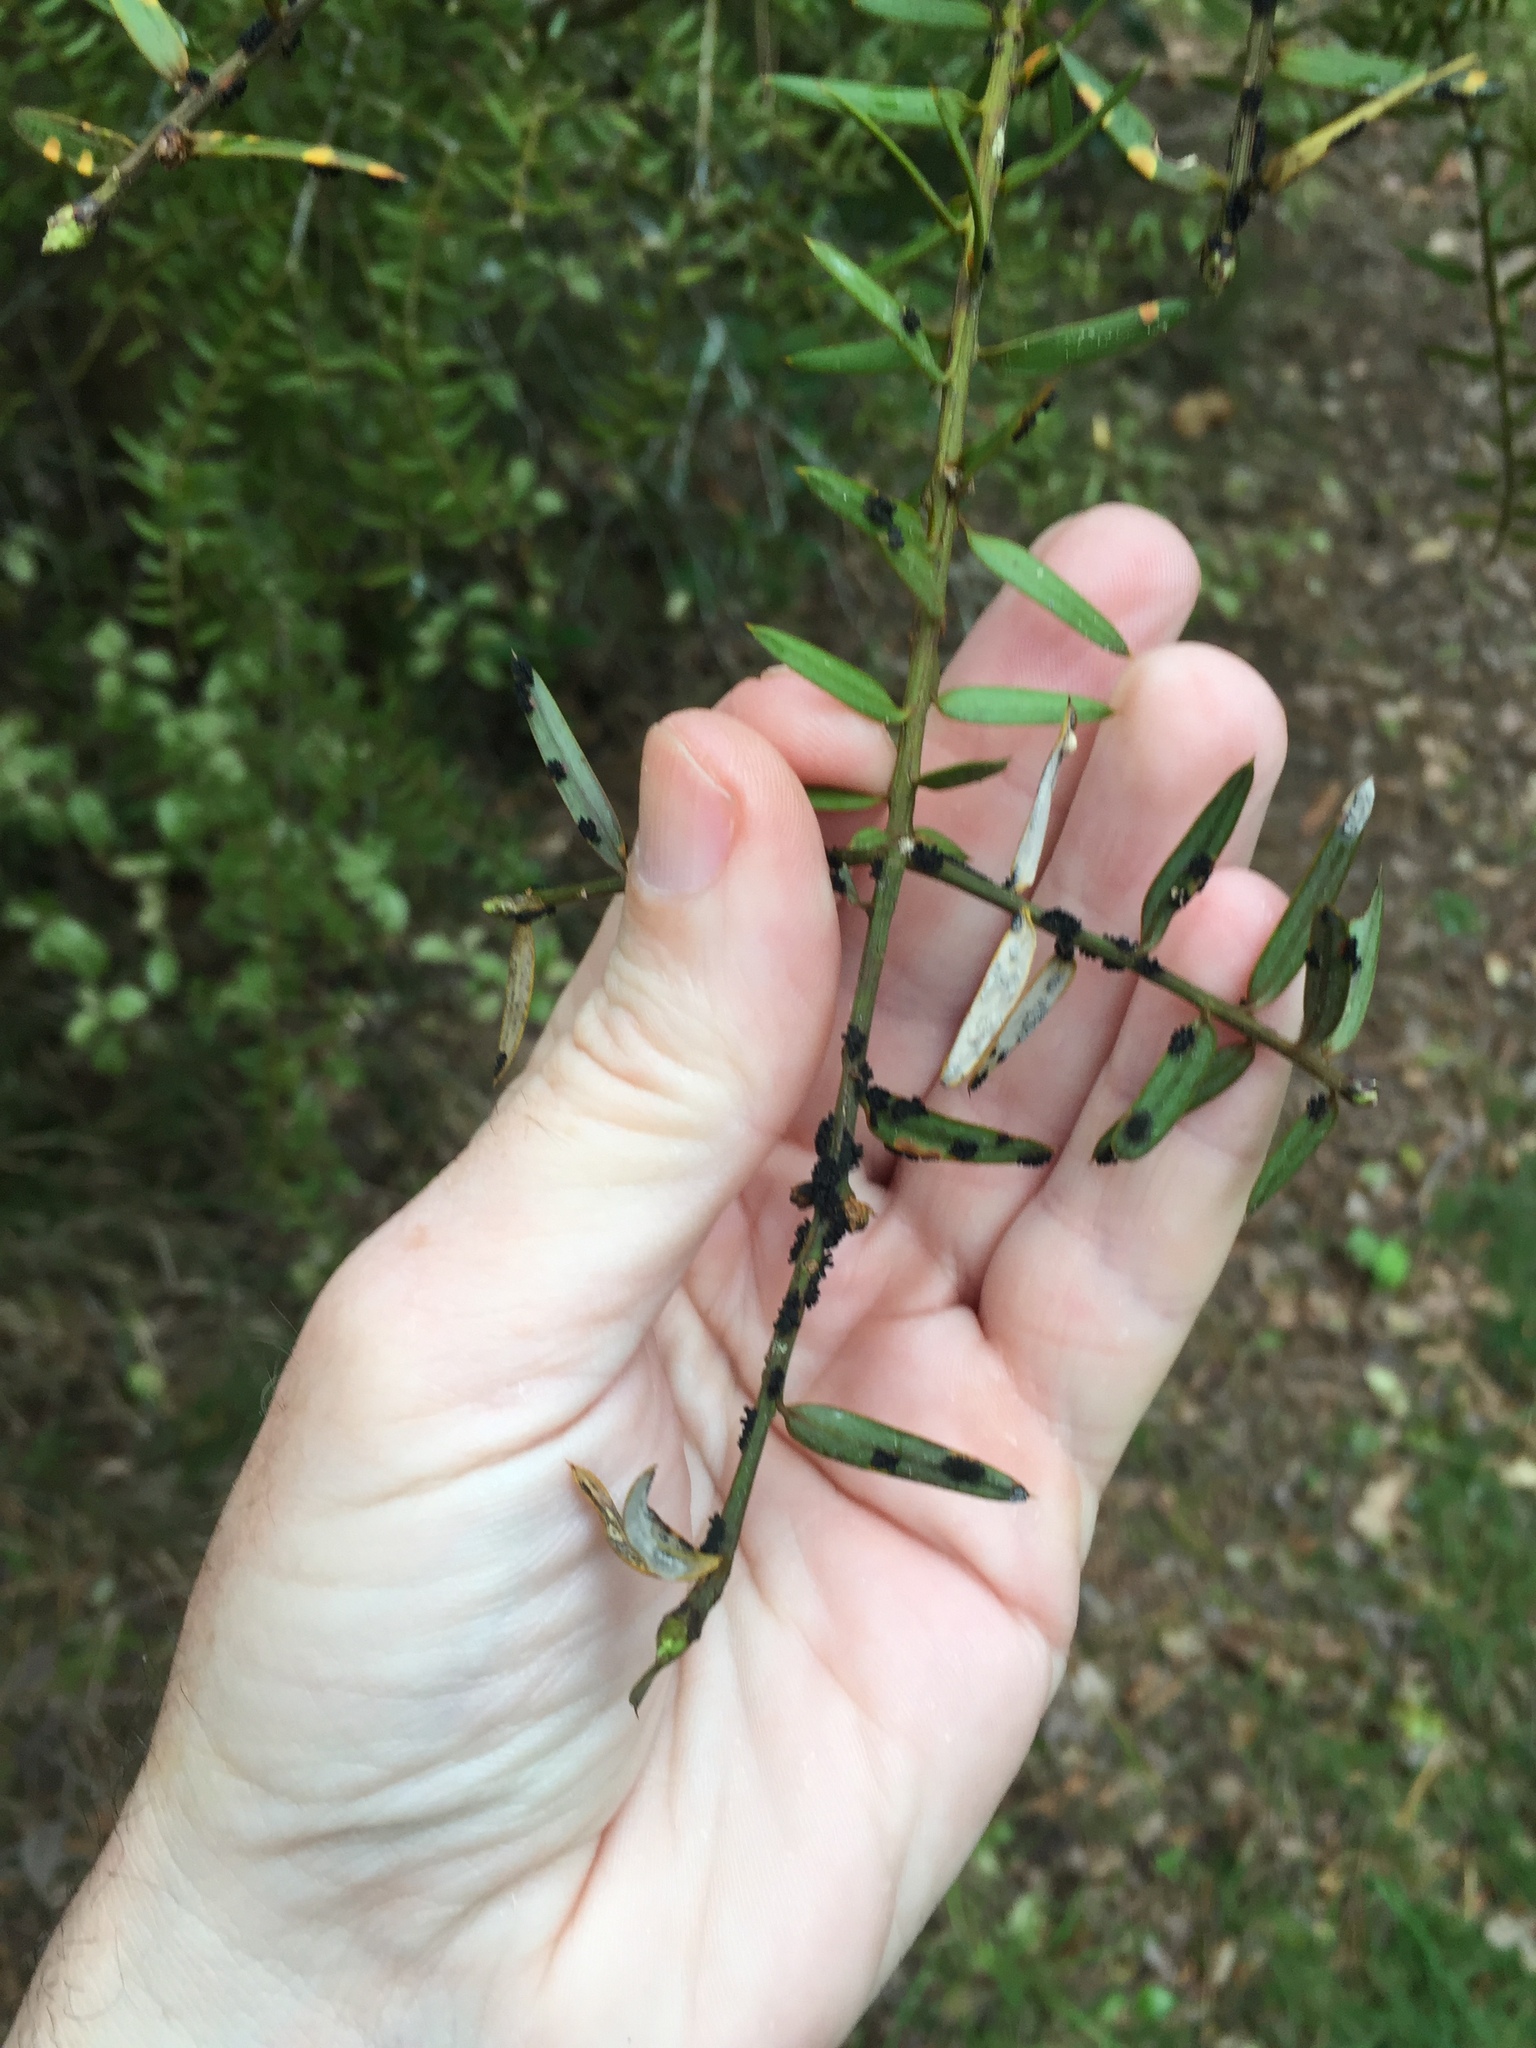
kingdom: Fungi
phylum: Ascomycota
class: Eurotiomycetes
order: Coryneliales
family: Coryneliaceae
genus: Corynelia
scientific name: Corynelia tropica
